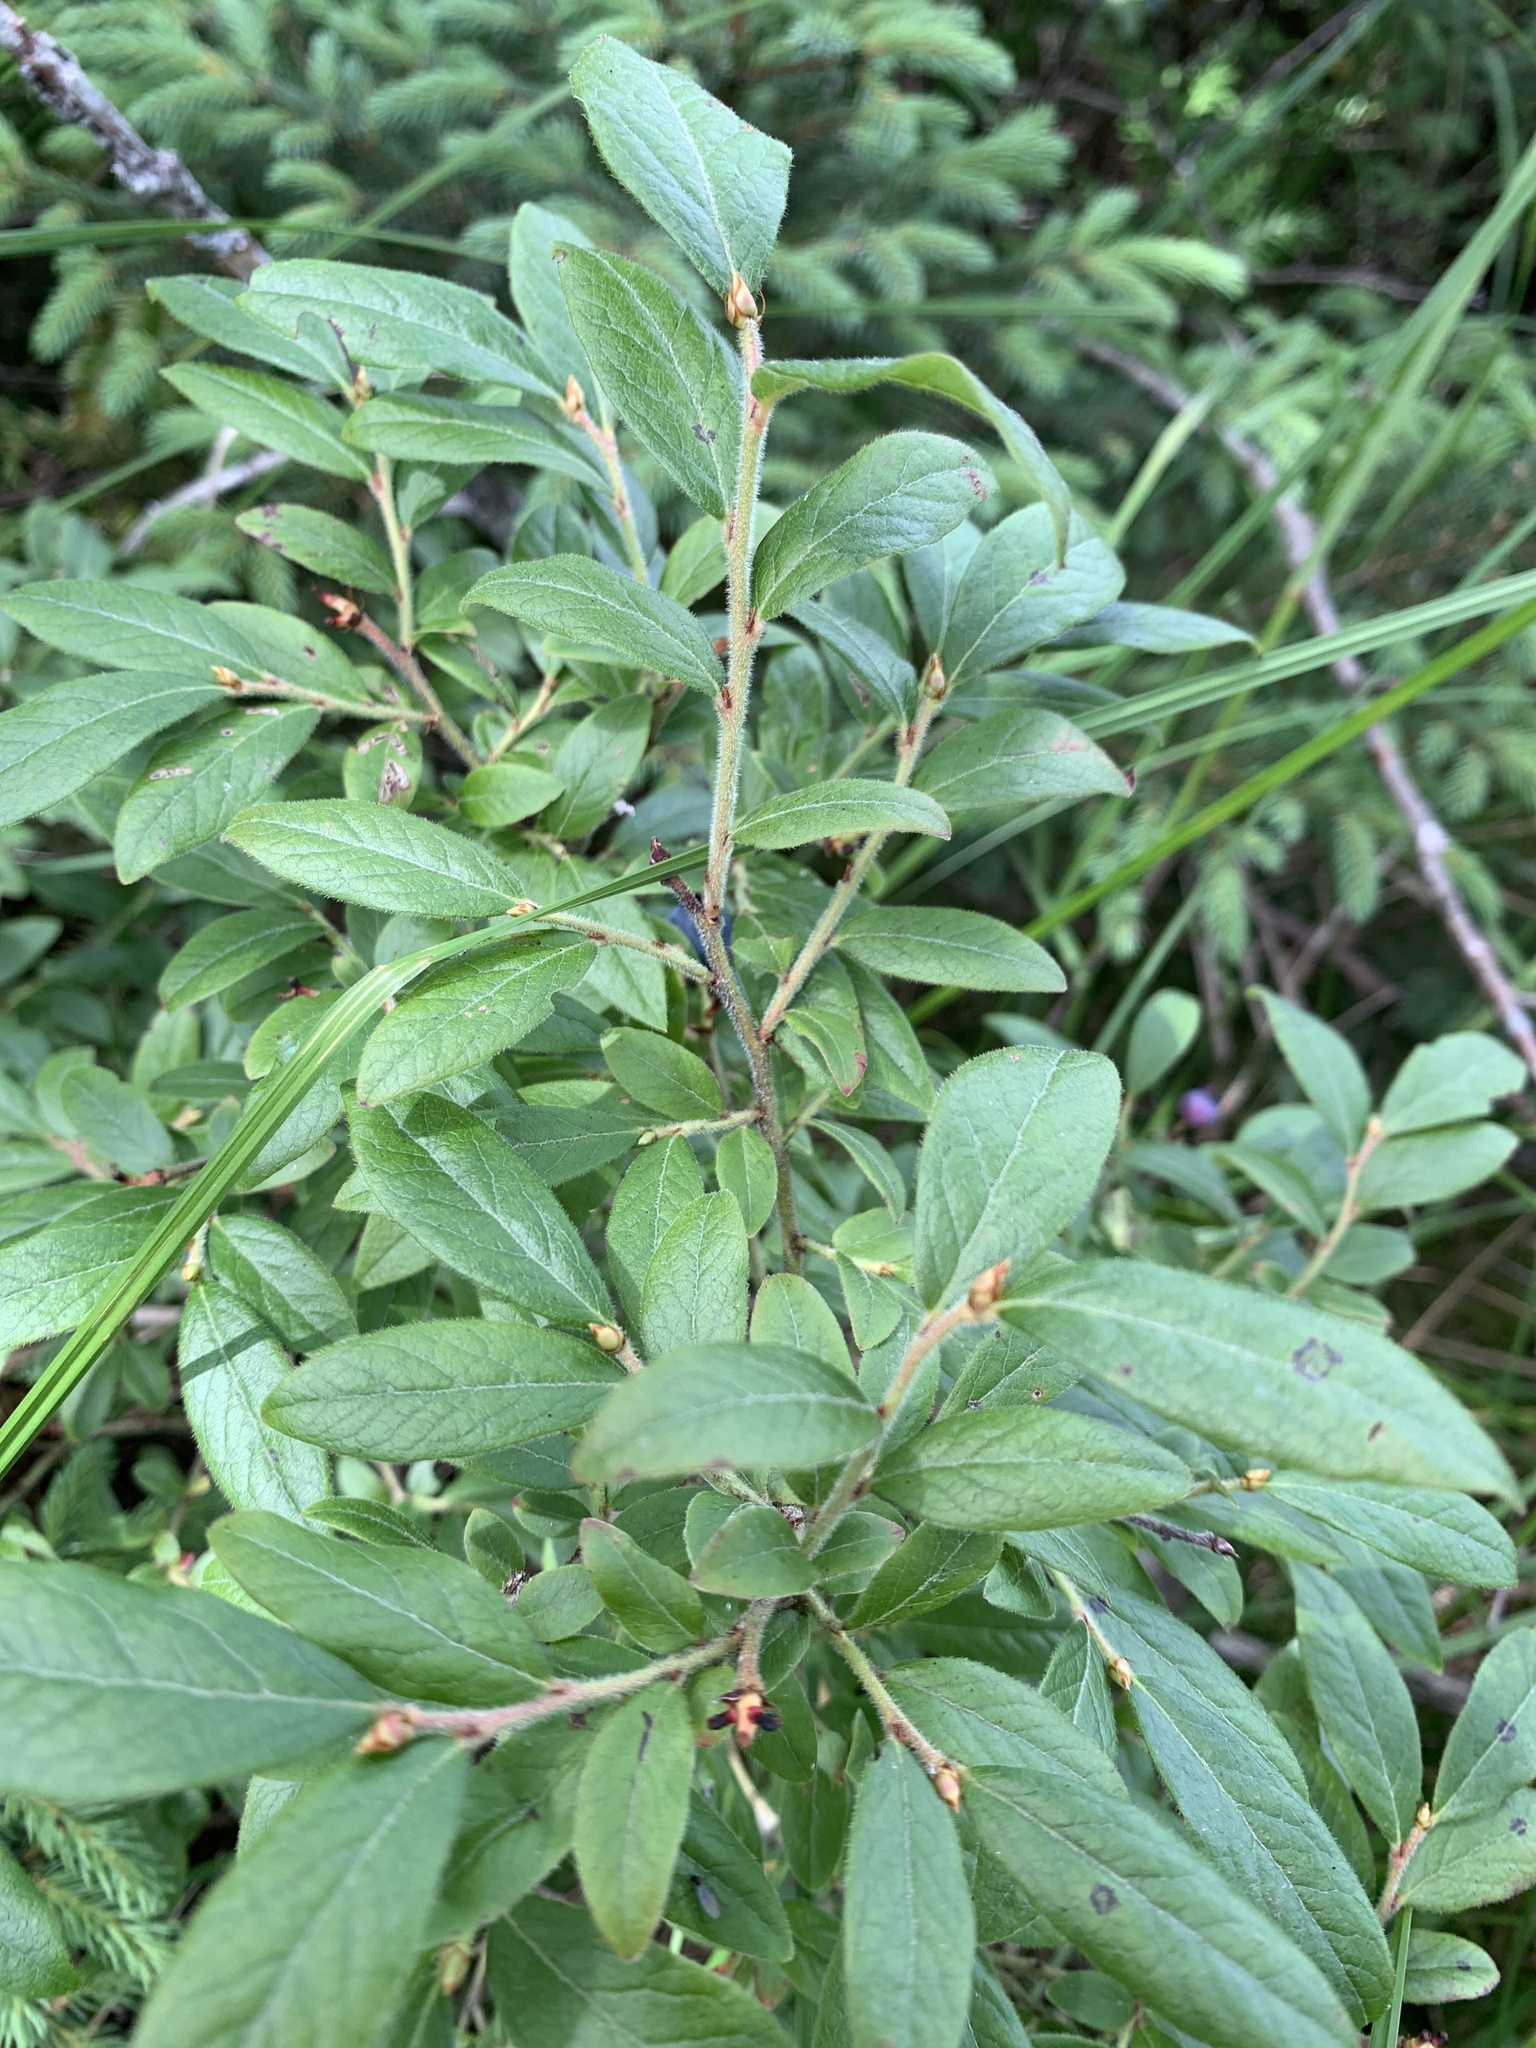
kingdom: Plantae
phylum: Tracheophyta
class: Magnoliopsida
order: Ericales
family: Ericaceae
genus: Vaccinium
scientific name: Vaccinium myrtilloides
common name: Canada blueberry
